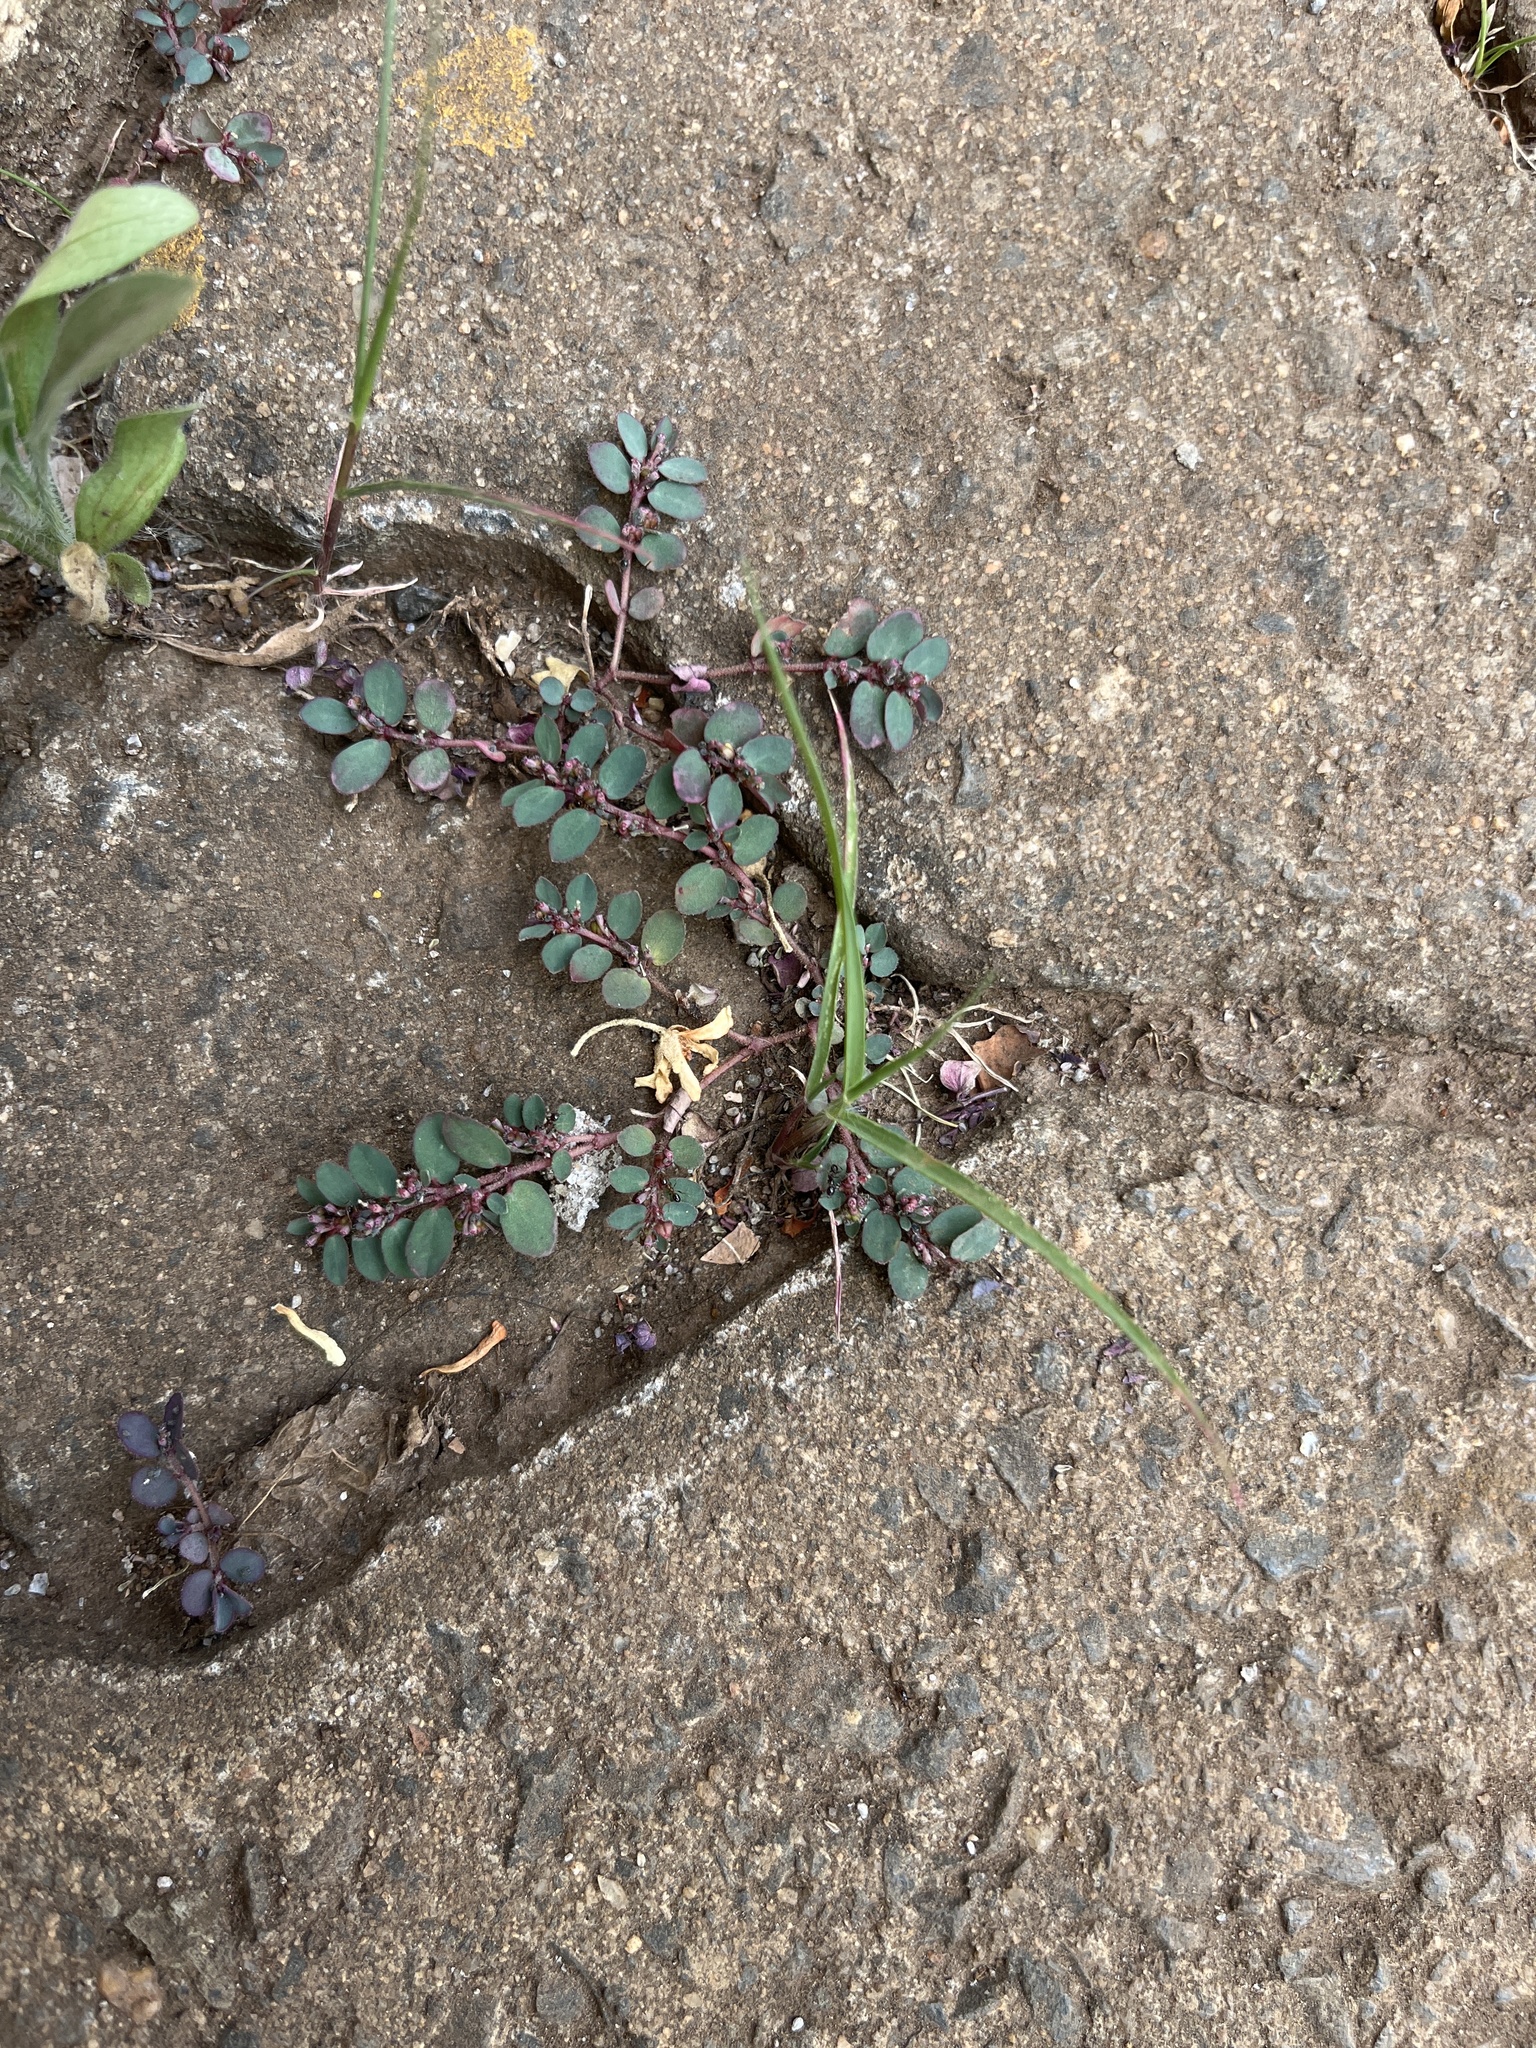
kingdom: Plantae
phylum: Tracheophyta
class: Magnoliopsida
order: Malpighiales
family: Euphorbiaceae
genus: Euphorbia
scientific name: Euphorbia prostrata
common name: Prostrate sandmat
